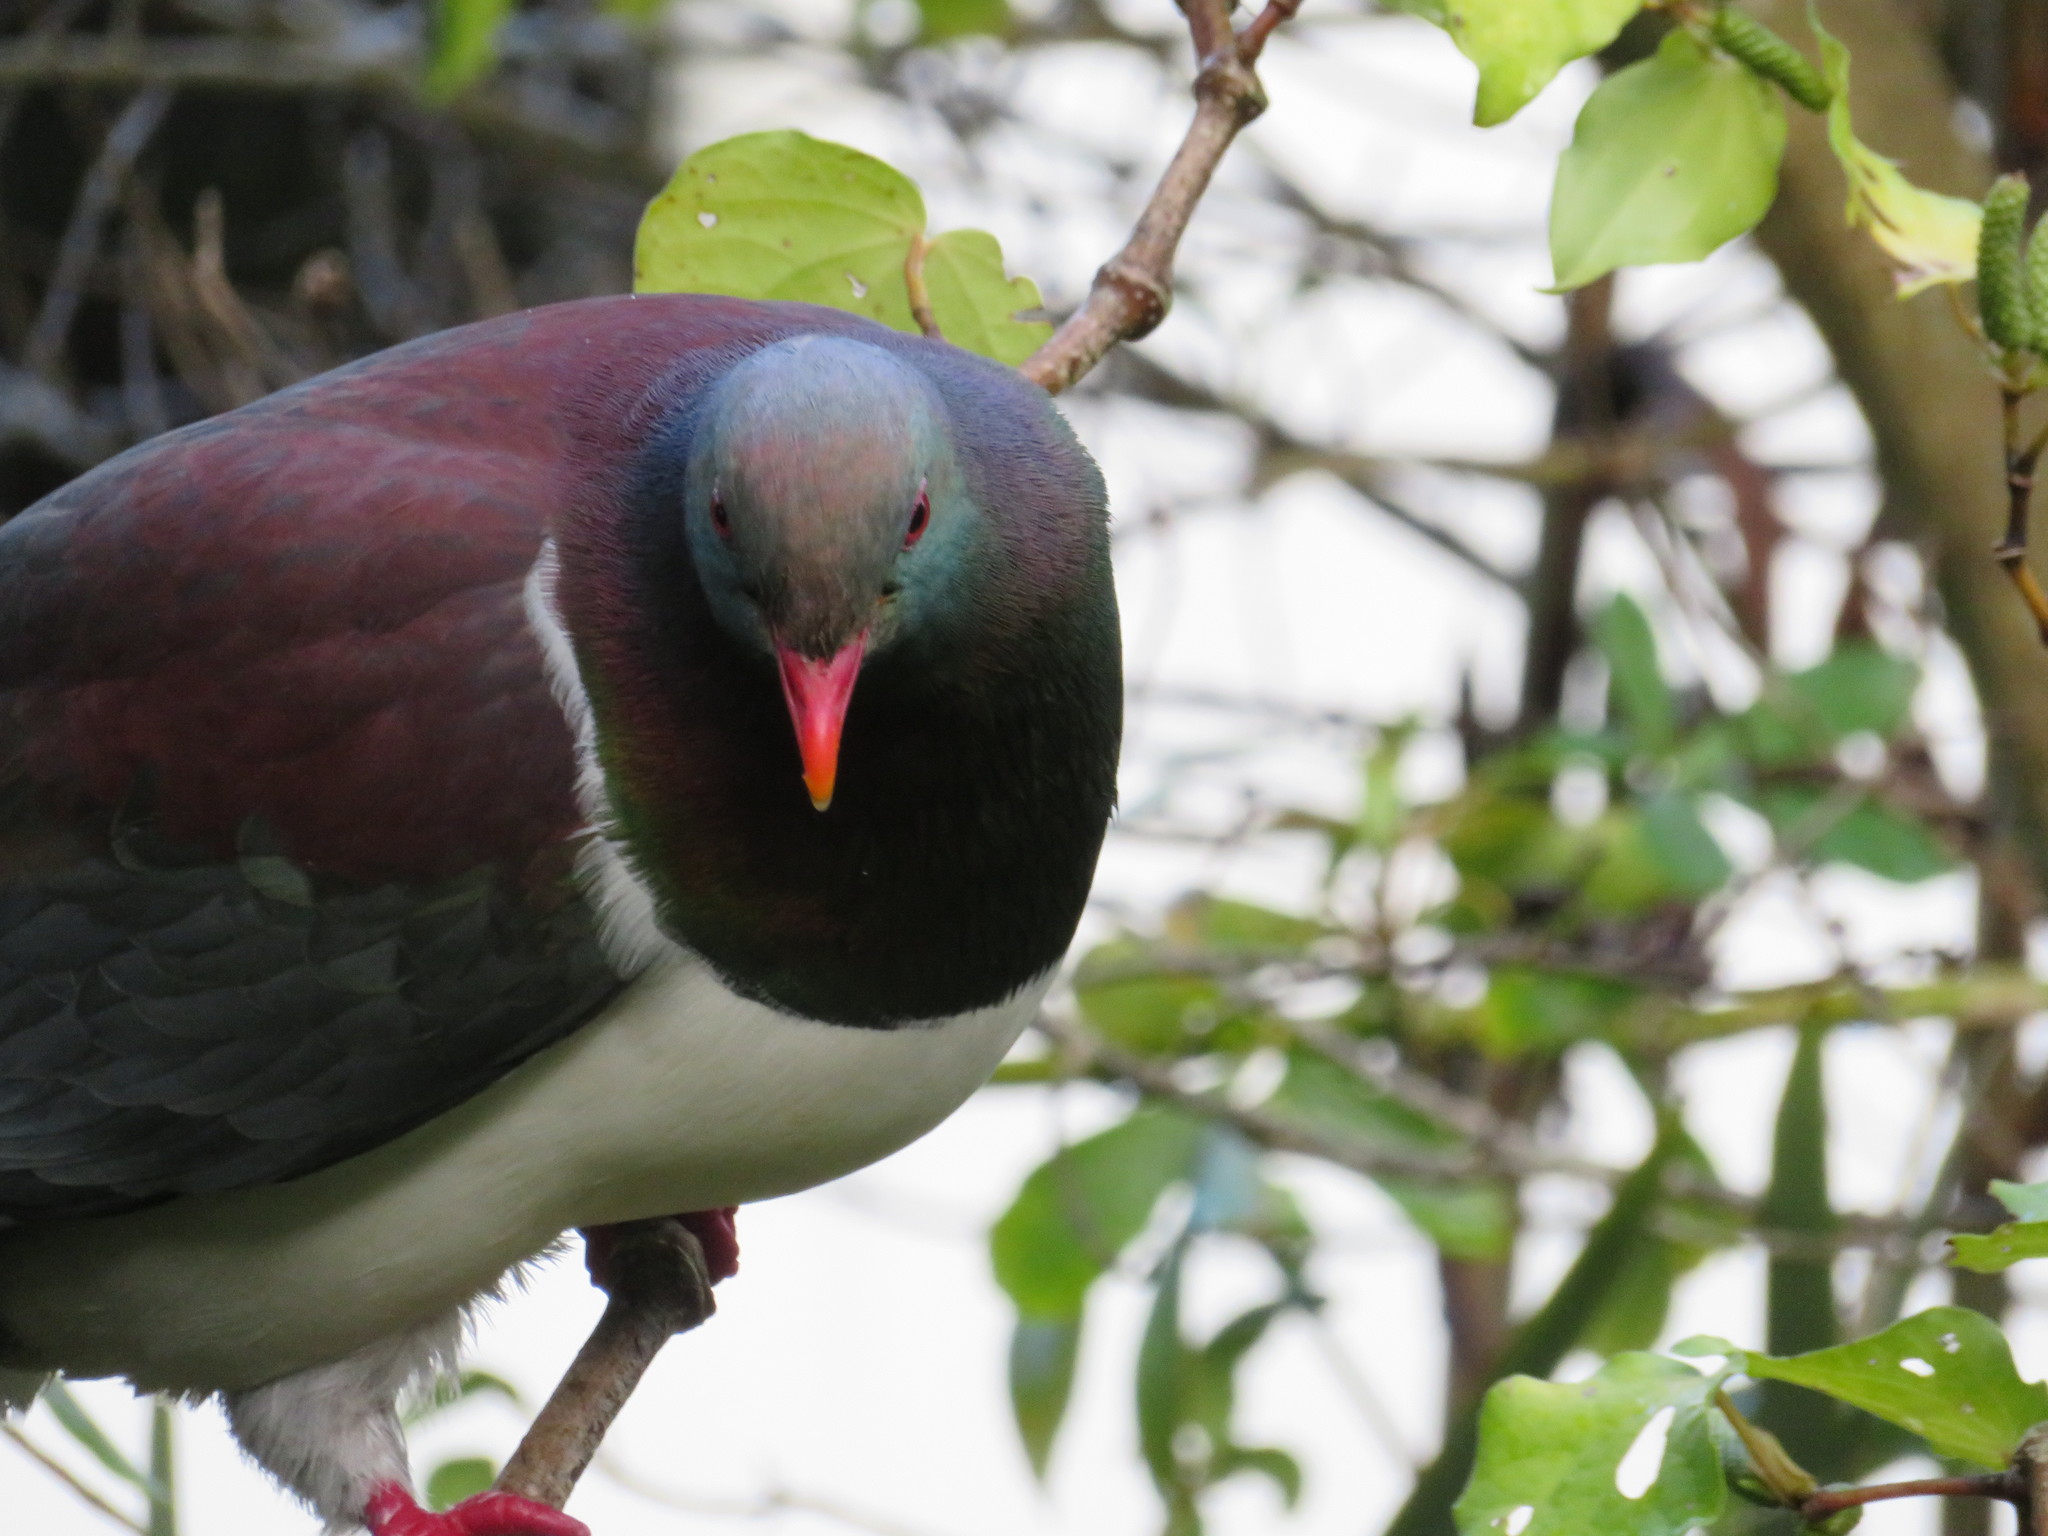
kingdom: Animalia
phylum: Chordata
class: Aves
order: Columbiformes
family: Columbidae
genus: Hemiphaga
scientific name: Hemiphaga novaeseelandiae
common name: New zealand pigeon
